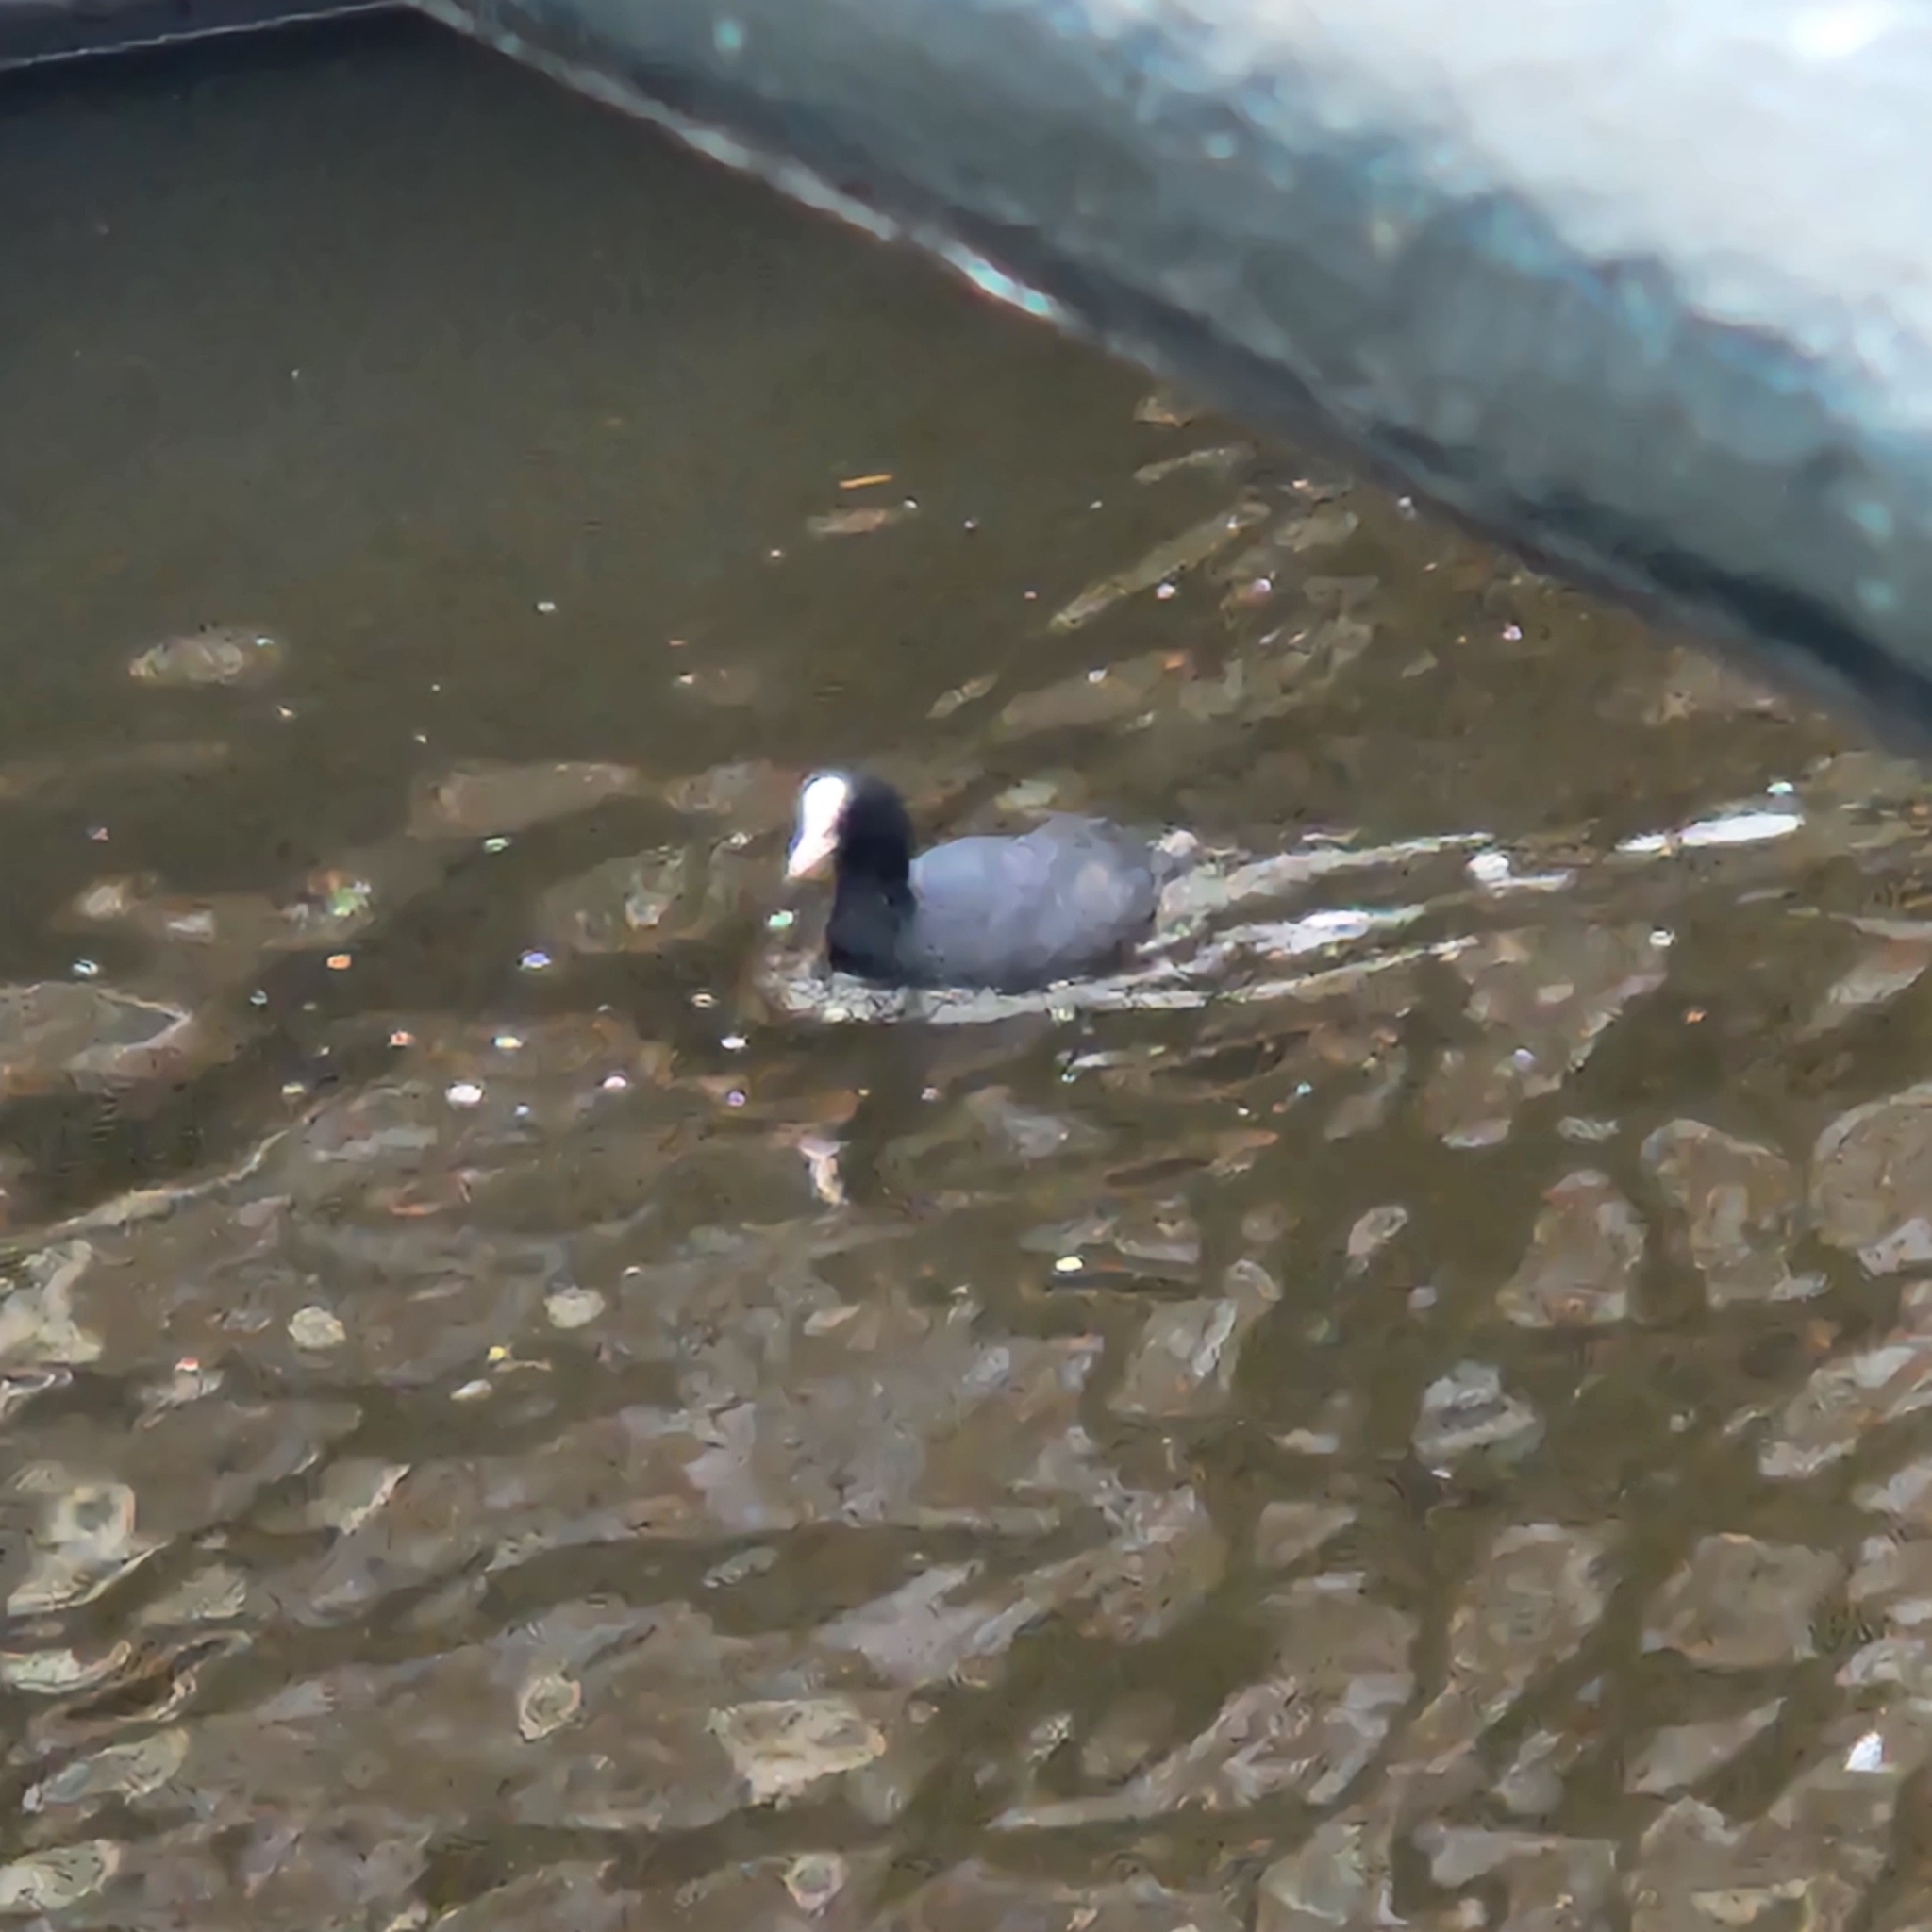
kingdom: Animalia
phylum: Chordata
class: Aves
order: Gruiformes
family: Rallidae
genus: Fulica
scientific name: Fulica atra
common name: Eurasian coot
